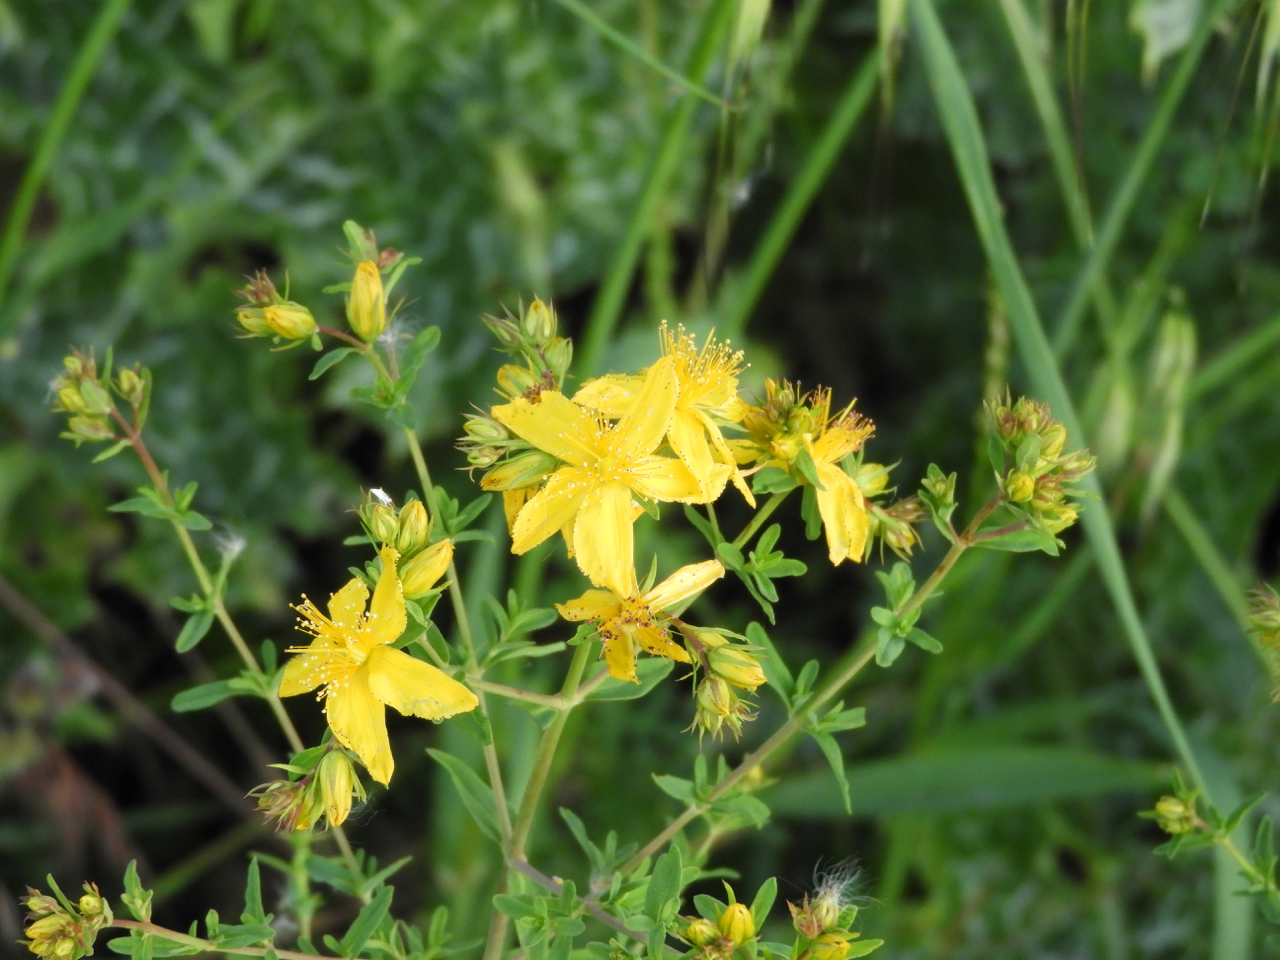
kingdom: Plantae
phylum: Tracheophyta
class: Magnoliopsida
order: Malpighiales
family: Hypericaceae
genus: Hypericum
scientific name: Hypericum perforatum
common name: Common st. johnswort
